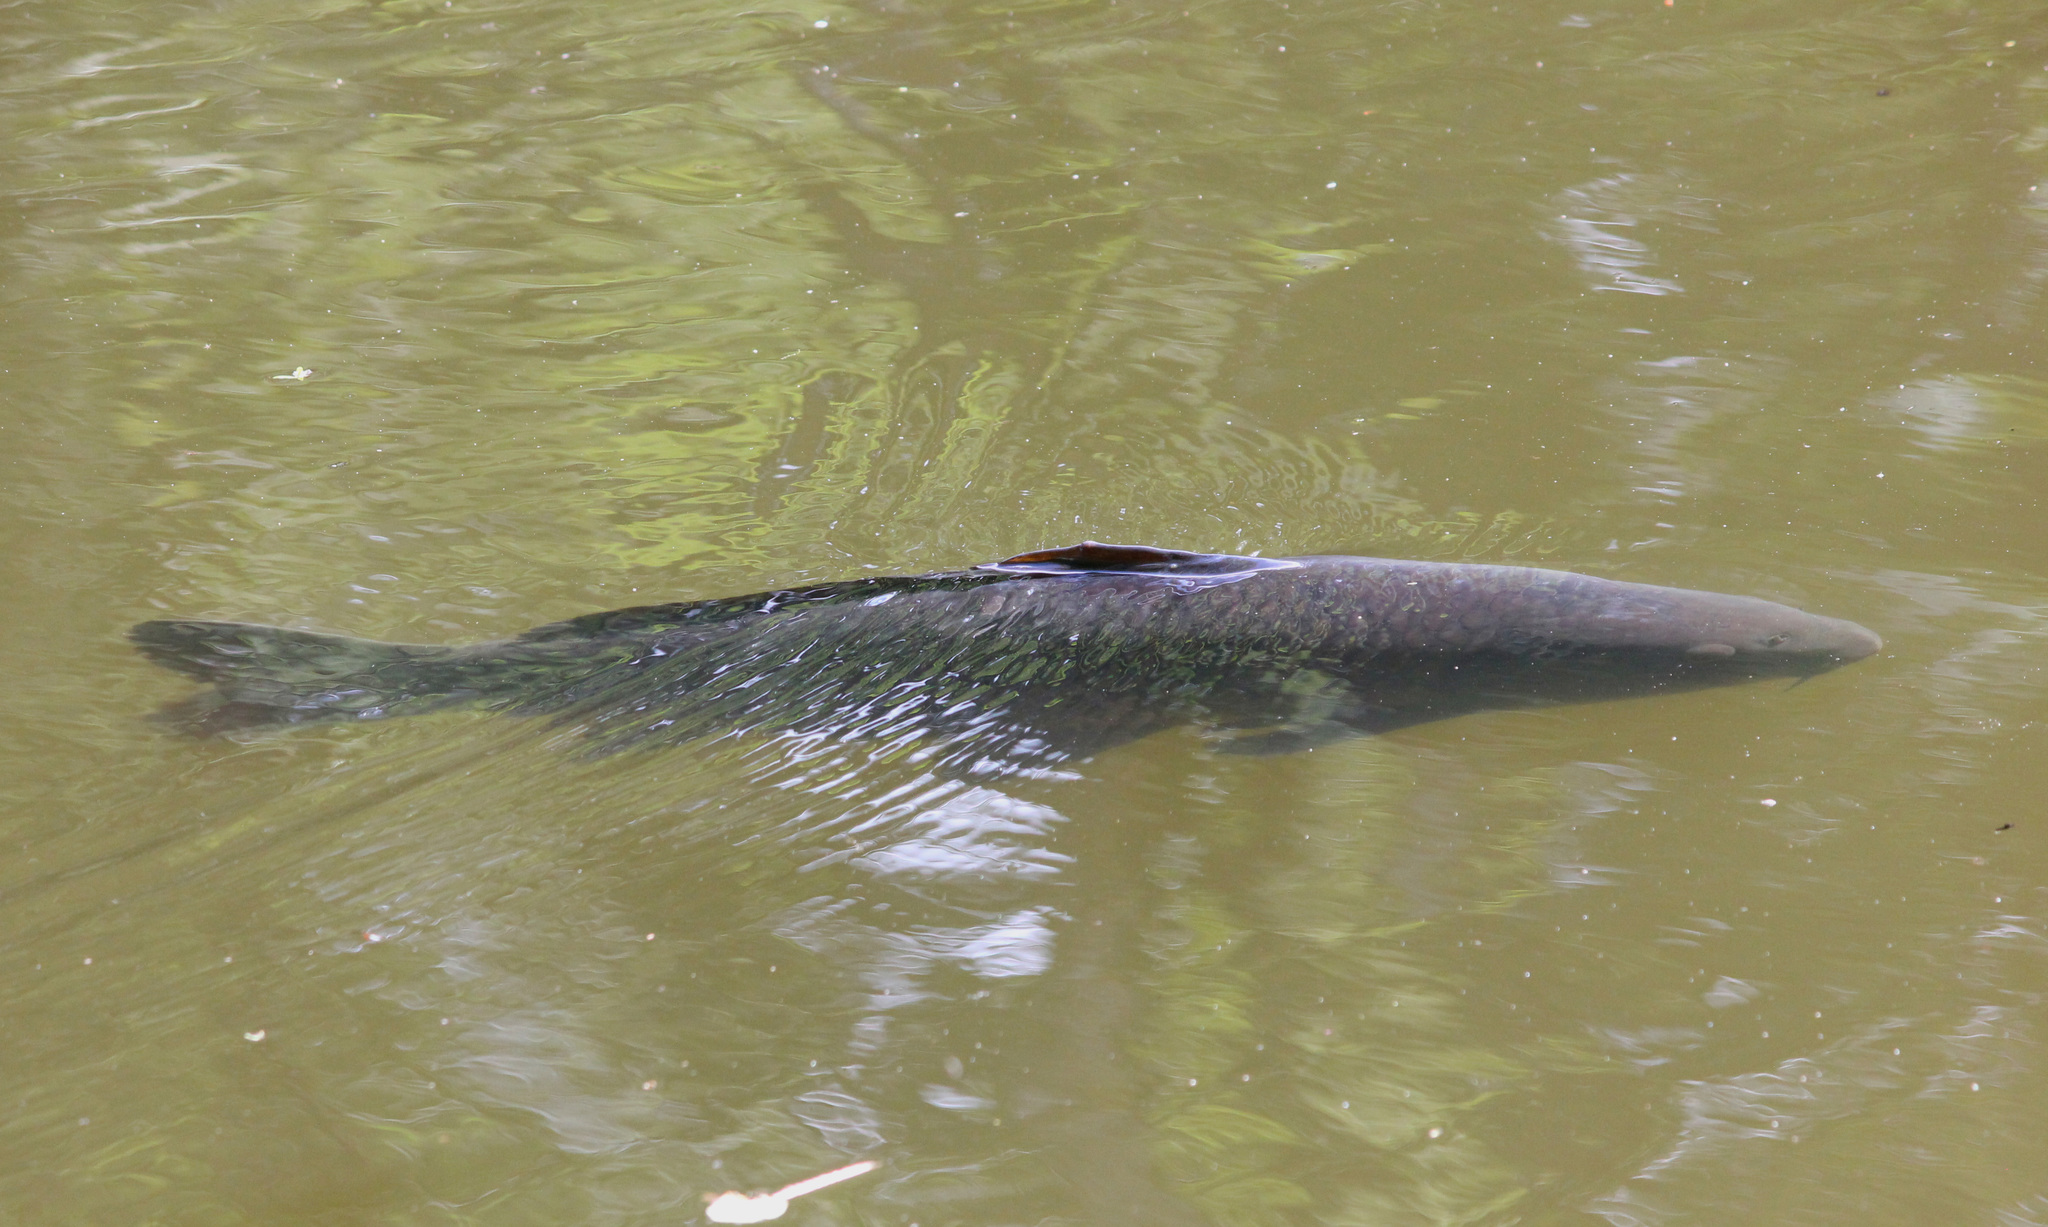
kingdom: Animalia
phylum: Chordata
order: Cypriniformes
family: Cyprinidae
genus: Cyprinus
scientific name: Cyprinus carpio
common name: Common carp
